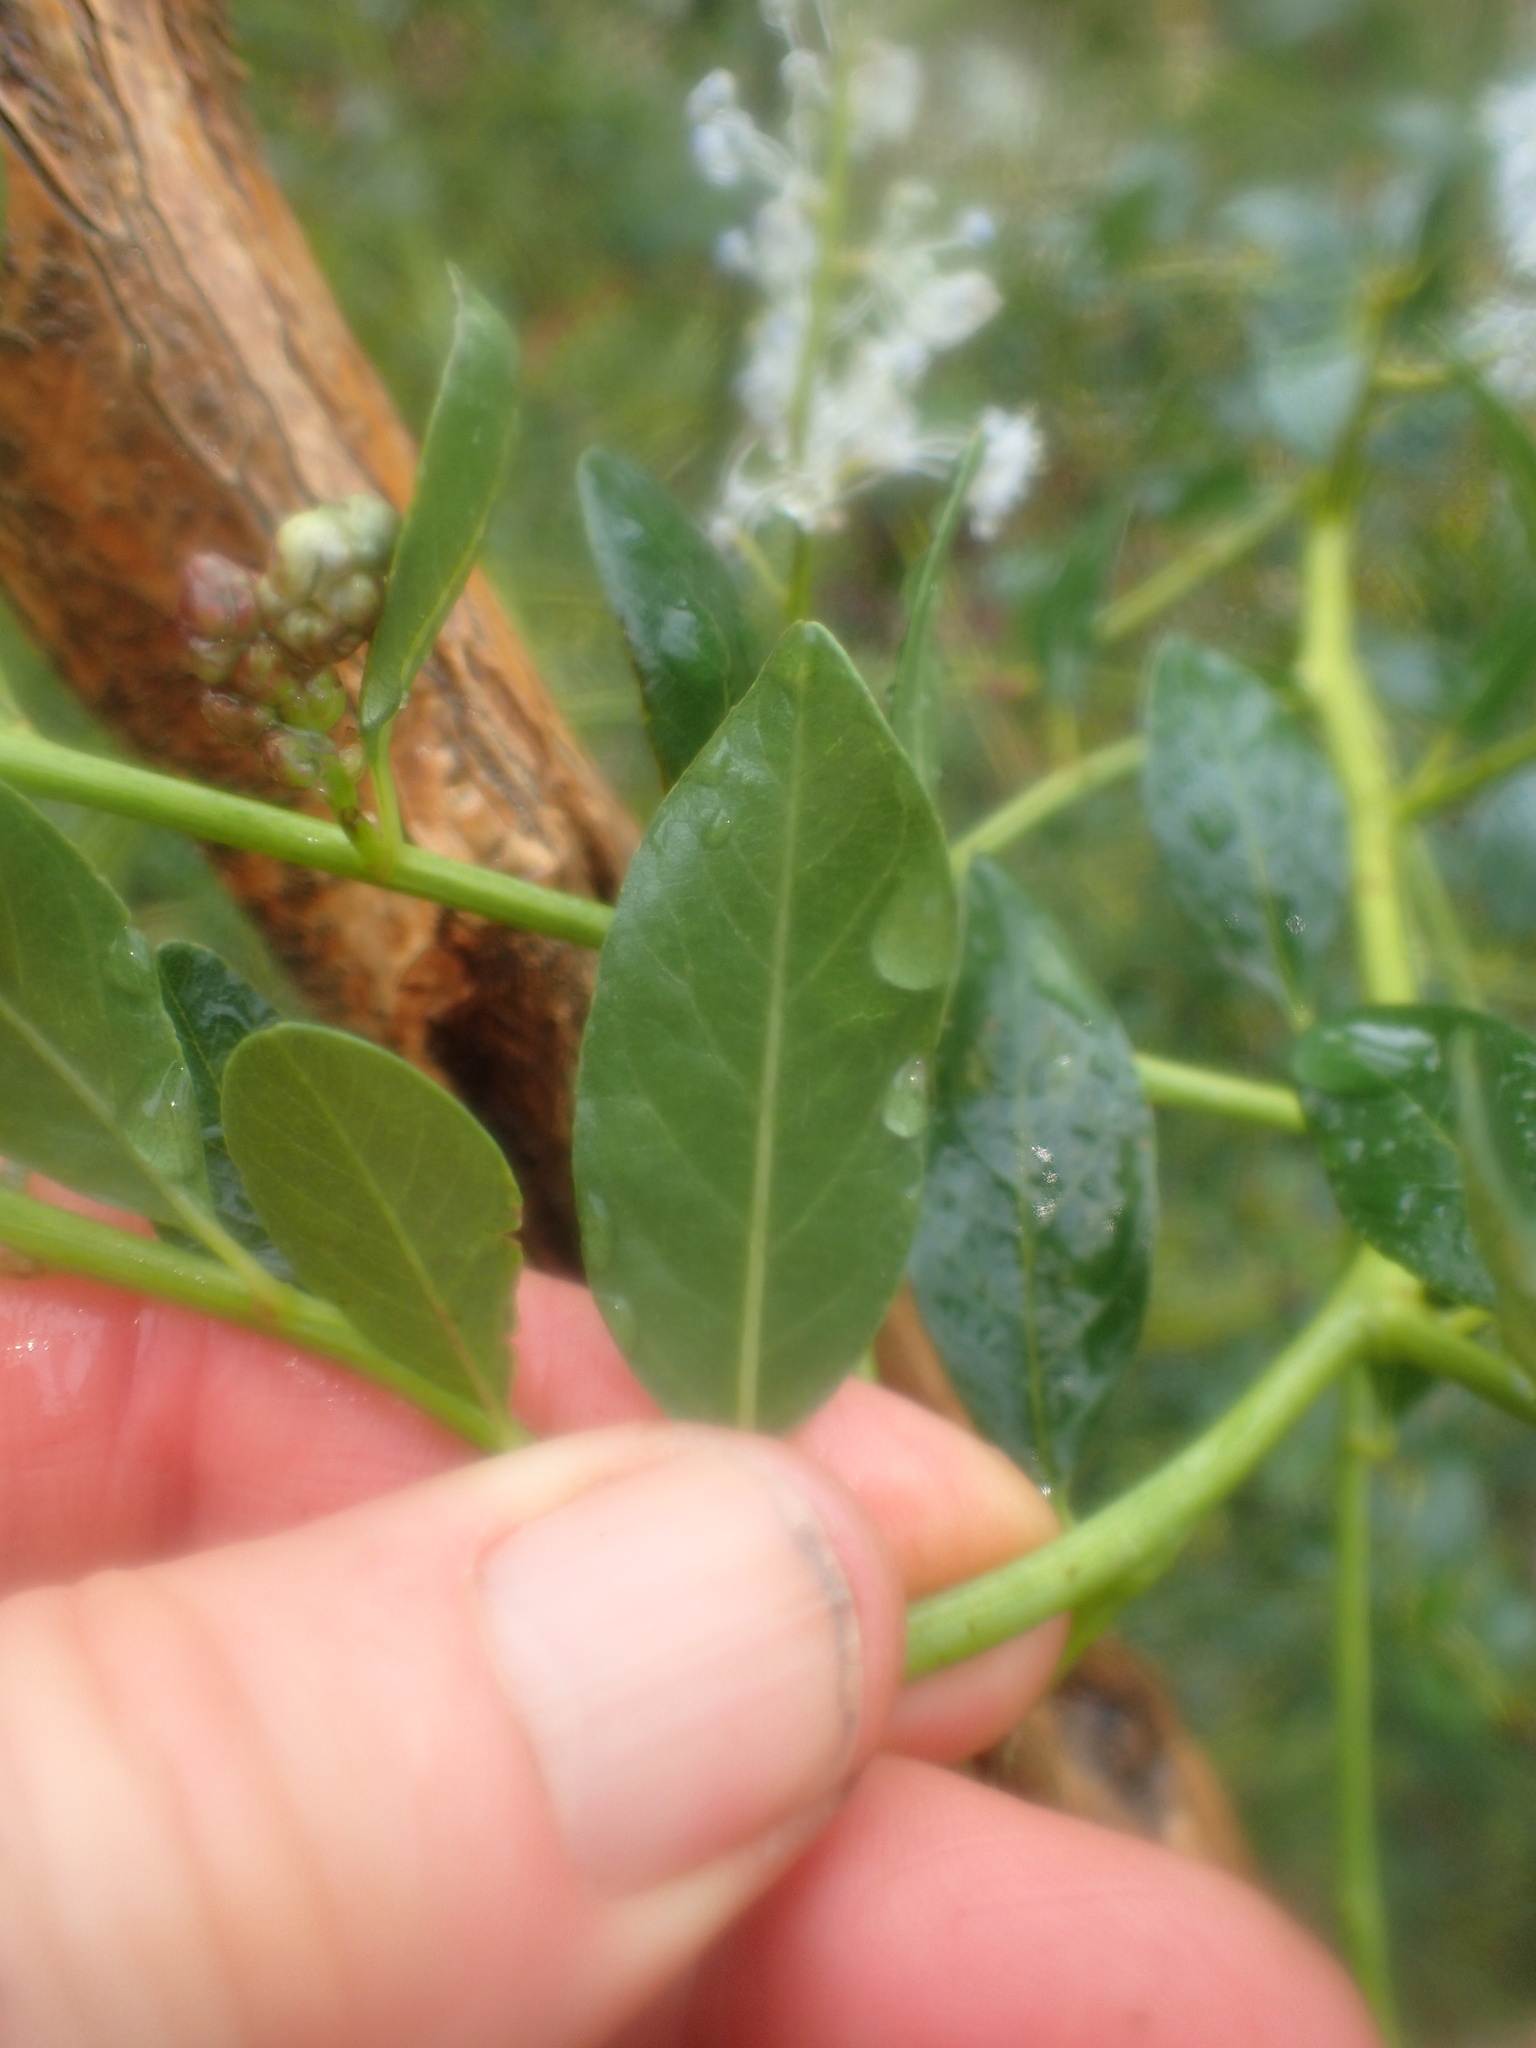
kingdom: Plantae
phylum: Tracheophyta
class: Magnoliopsida
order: Rosales
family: Rhamnaceae
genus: Ceanothus
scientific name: Ceanothus spinosus
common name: Greenbark whitethorn
